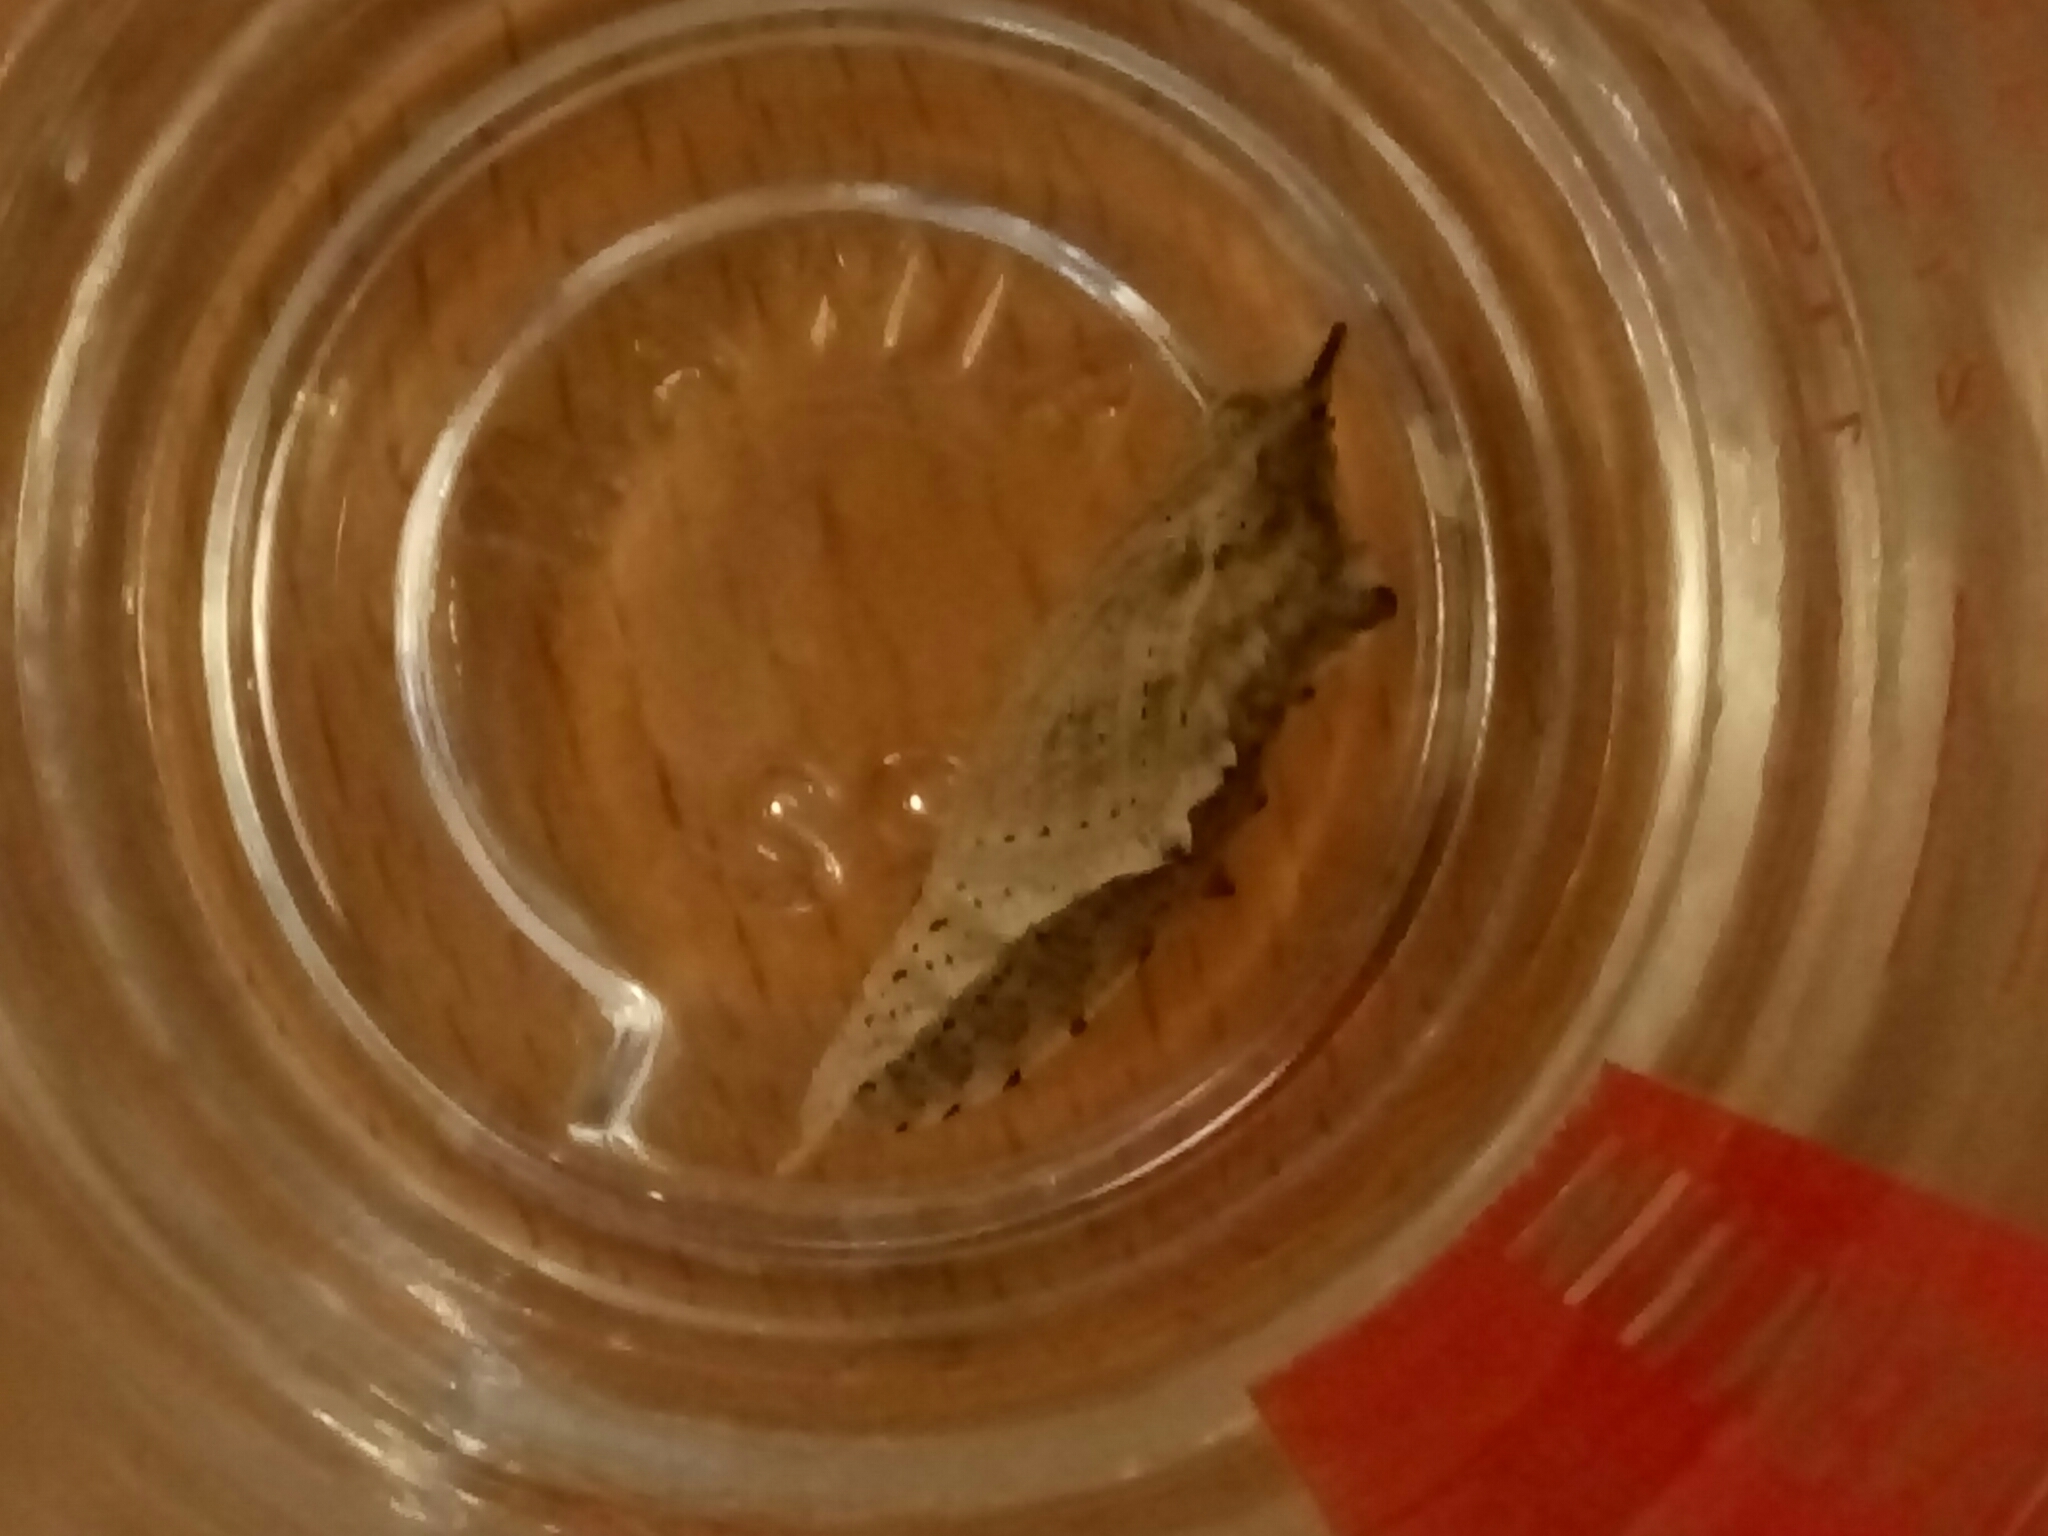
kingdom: Animalia
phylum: Arthropoda
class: Insecta
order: Lepidoptera
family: Pieridae
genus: Pieris
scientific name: Pieris rapae
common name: Small white
